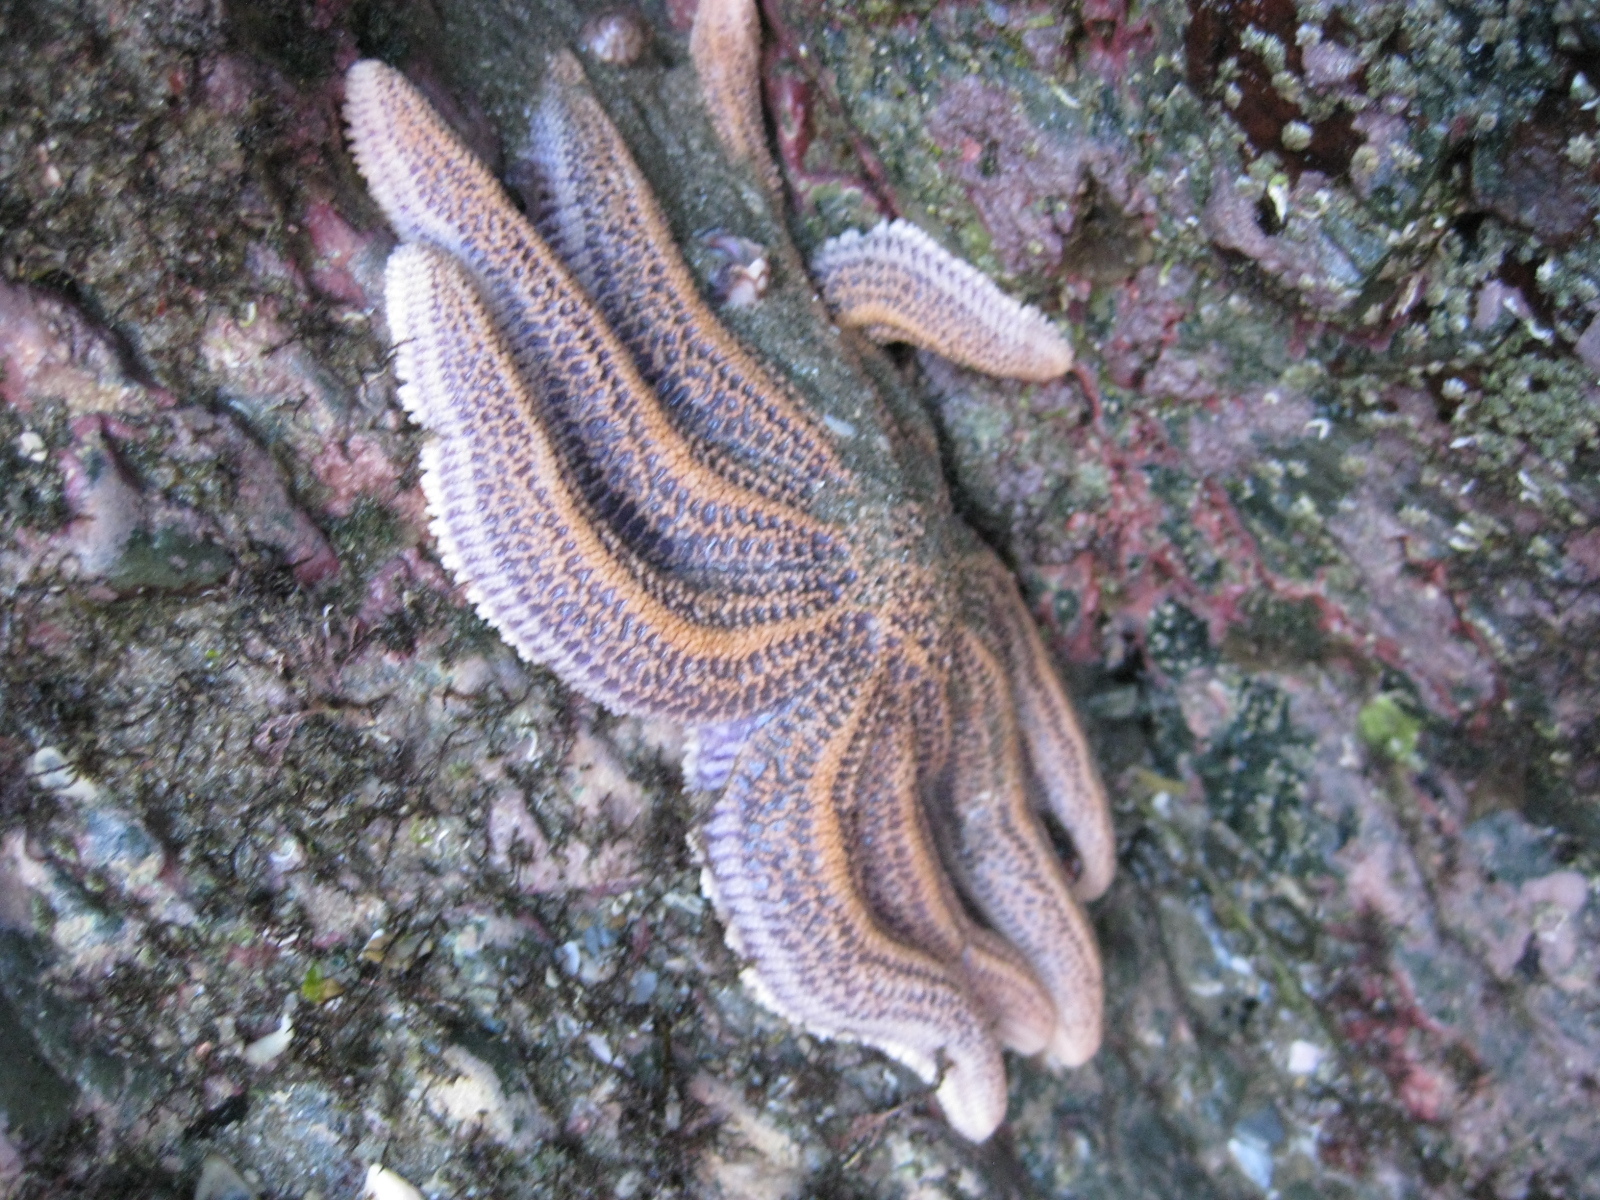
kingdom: Animalia
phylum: Echinodermata
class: Asteroidea
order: Forcipulatida
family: Stichasteridae
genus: Stichaster
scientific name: Stichaster australis
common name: Reef starfish
